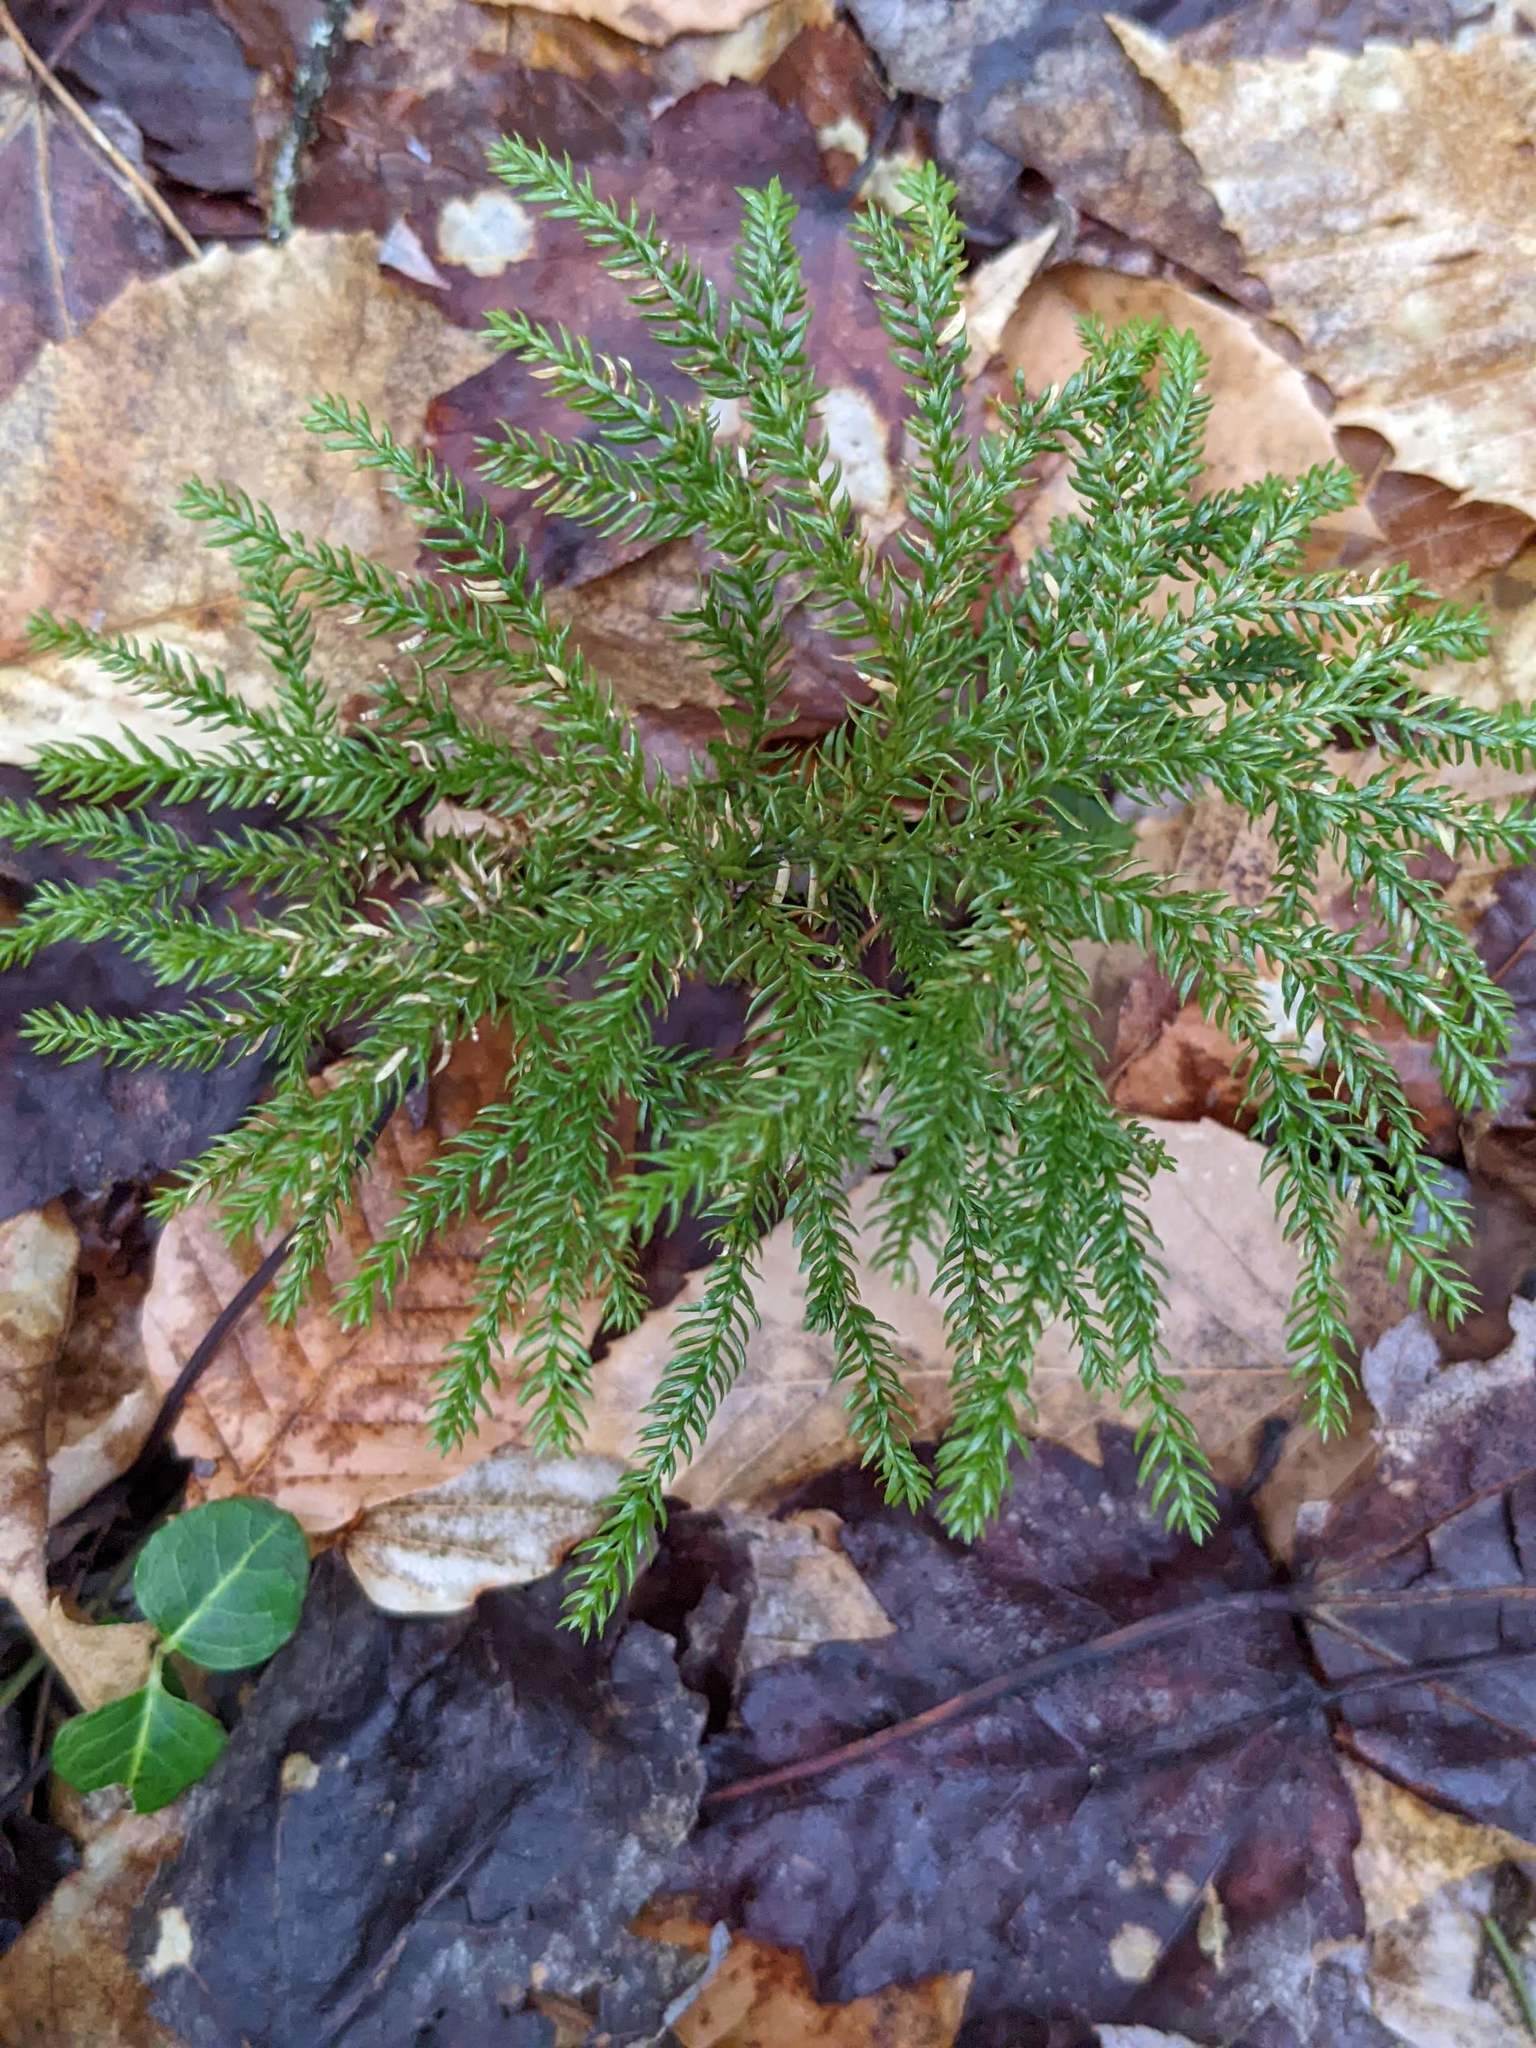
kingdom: Plantae
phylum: Tracheophyta
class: Magnoliopsida
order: Gentianales
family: Rubiaceae
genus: Mitchella
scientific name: Mitchella repens
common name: Partridge-berry
